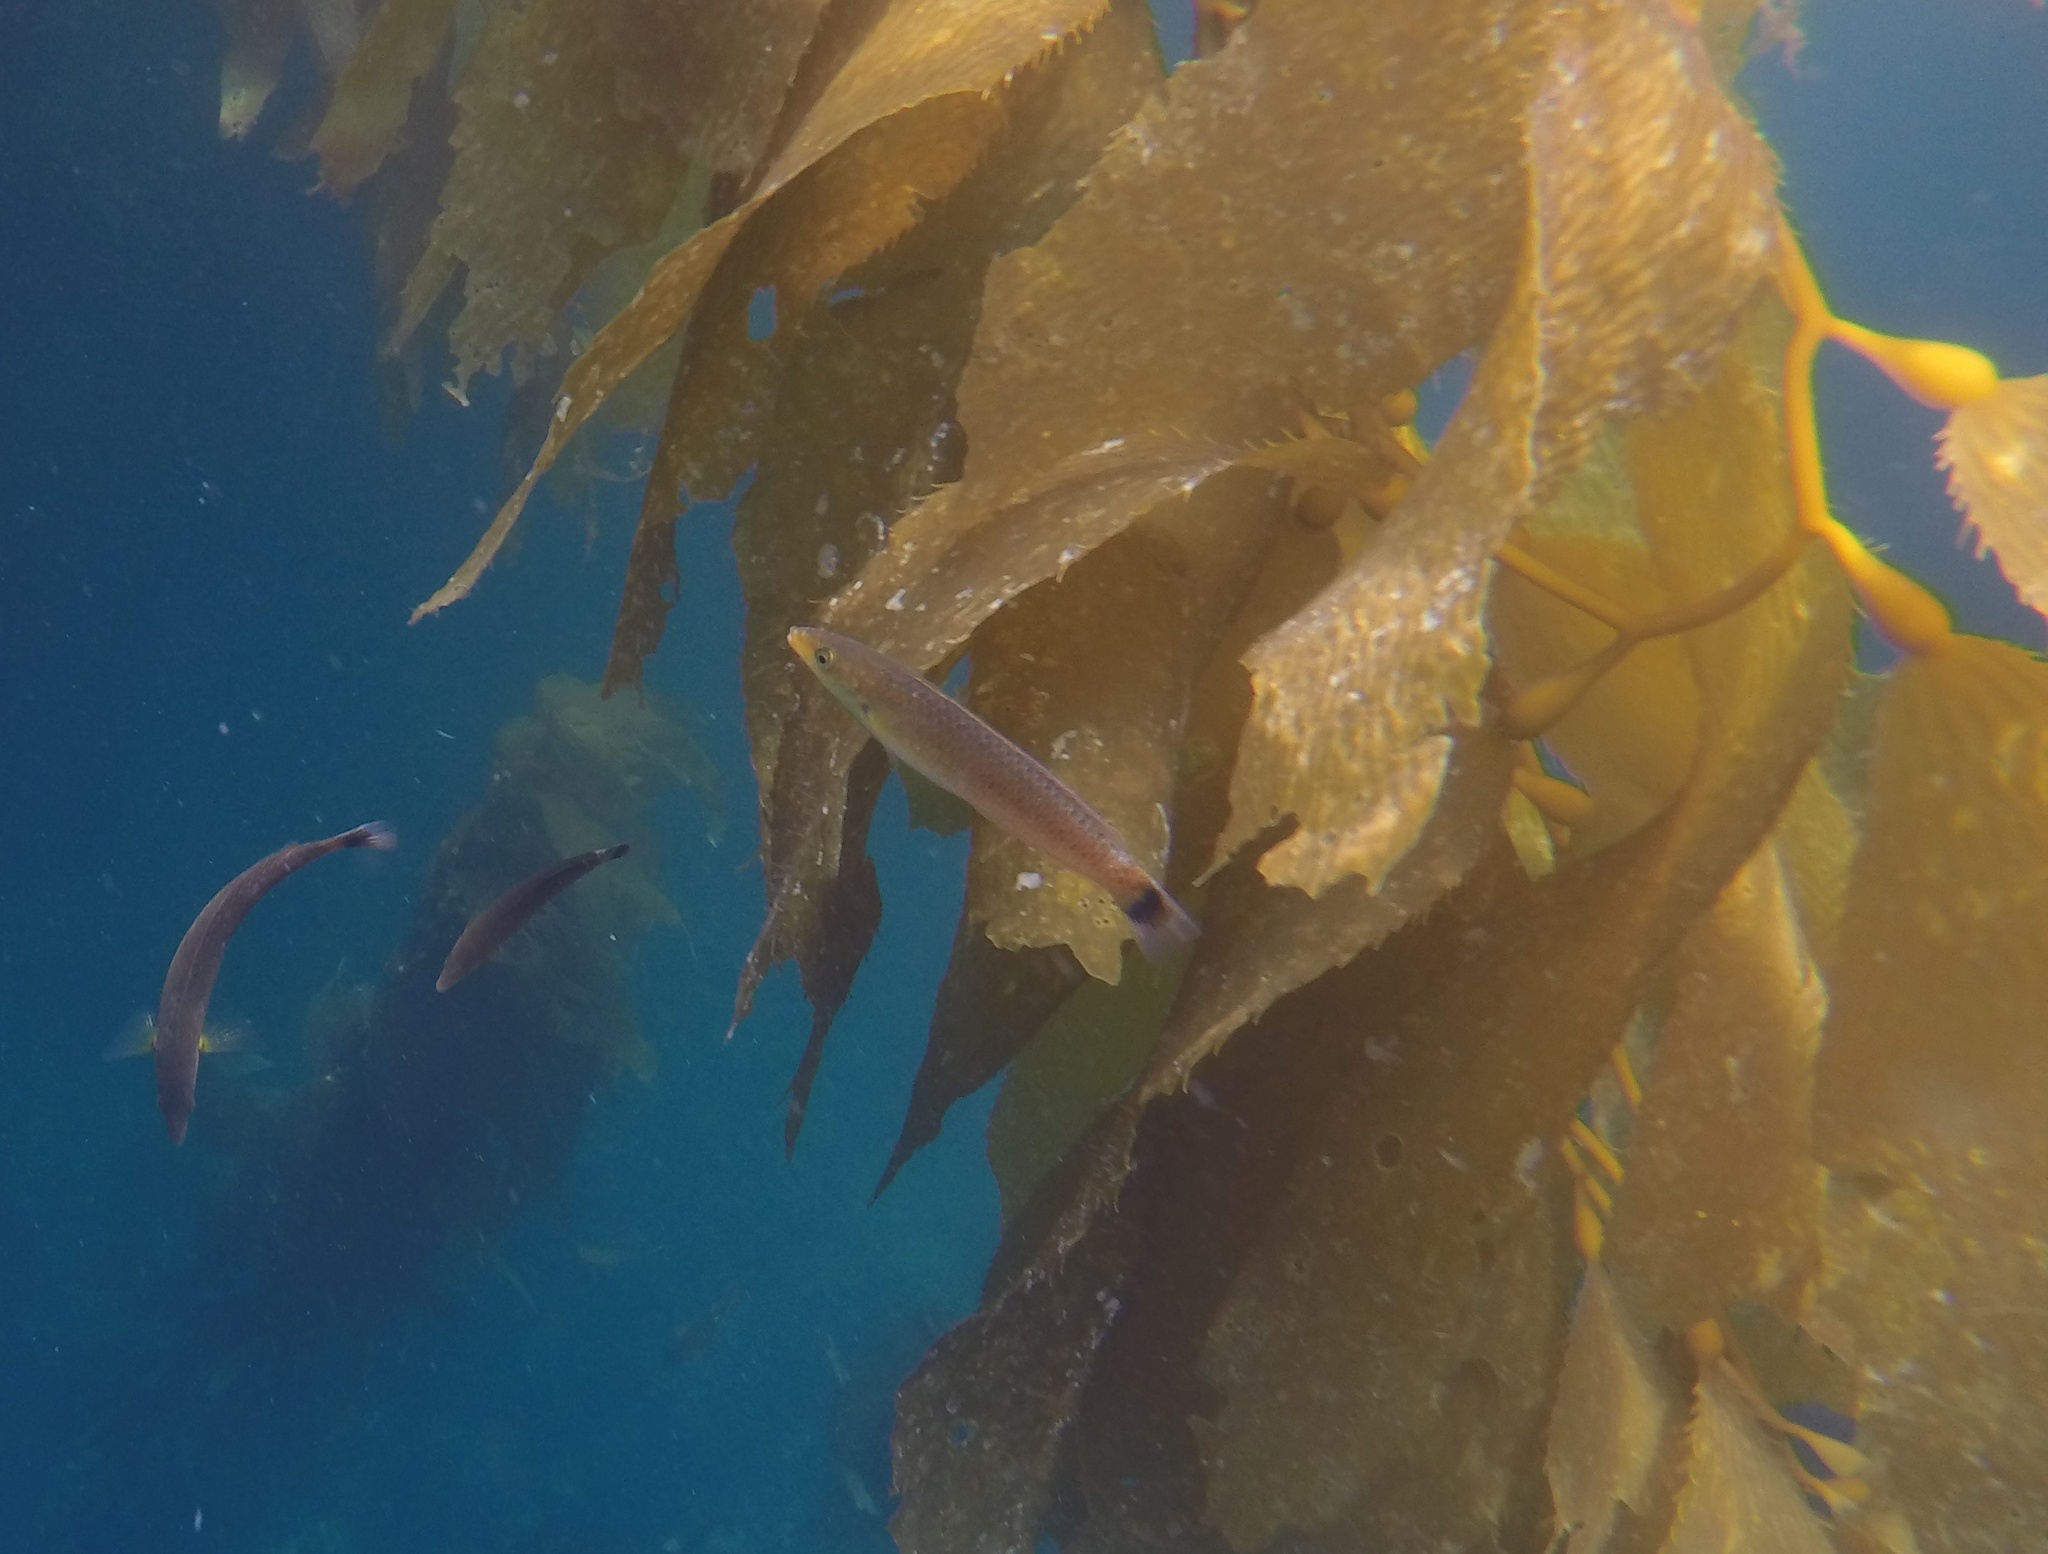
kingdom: Animalia
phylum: Chordata
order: Perciformes
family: Labridae
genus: Oxyjulis
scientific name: Oxyjulis californica
